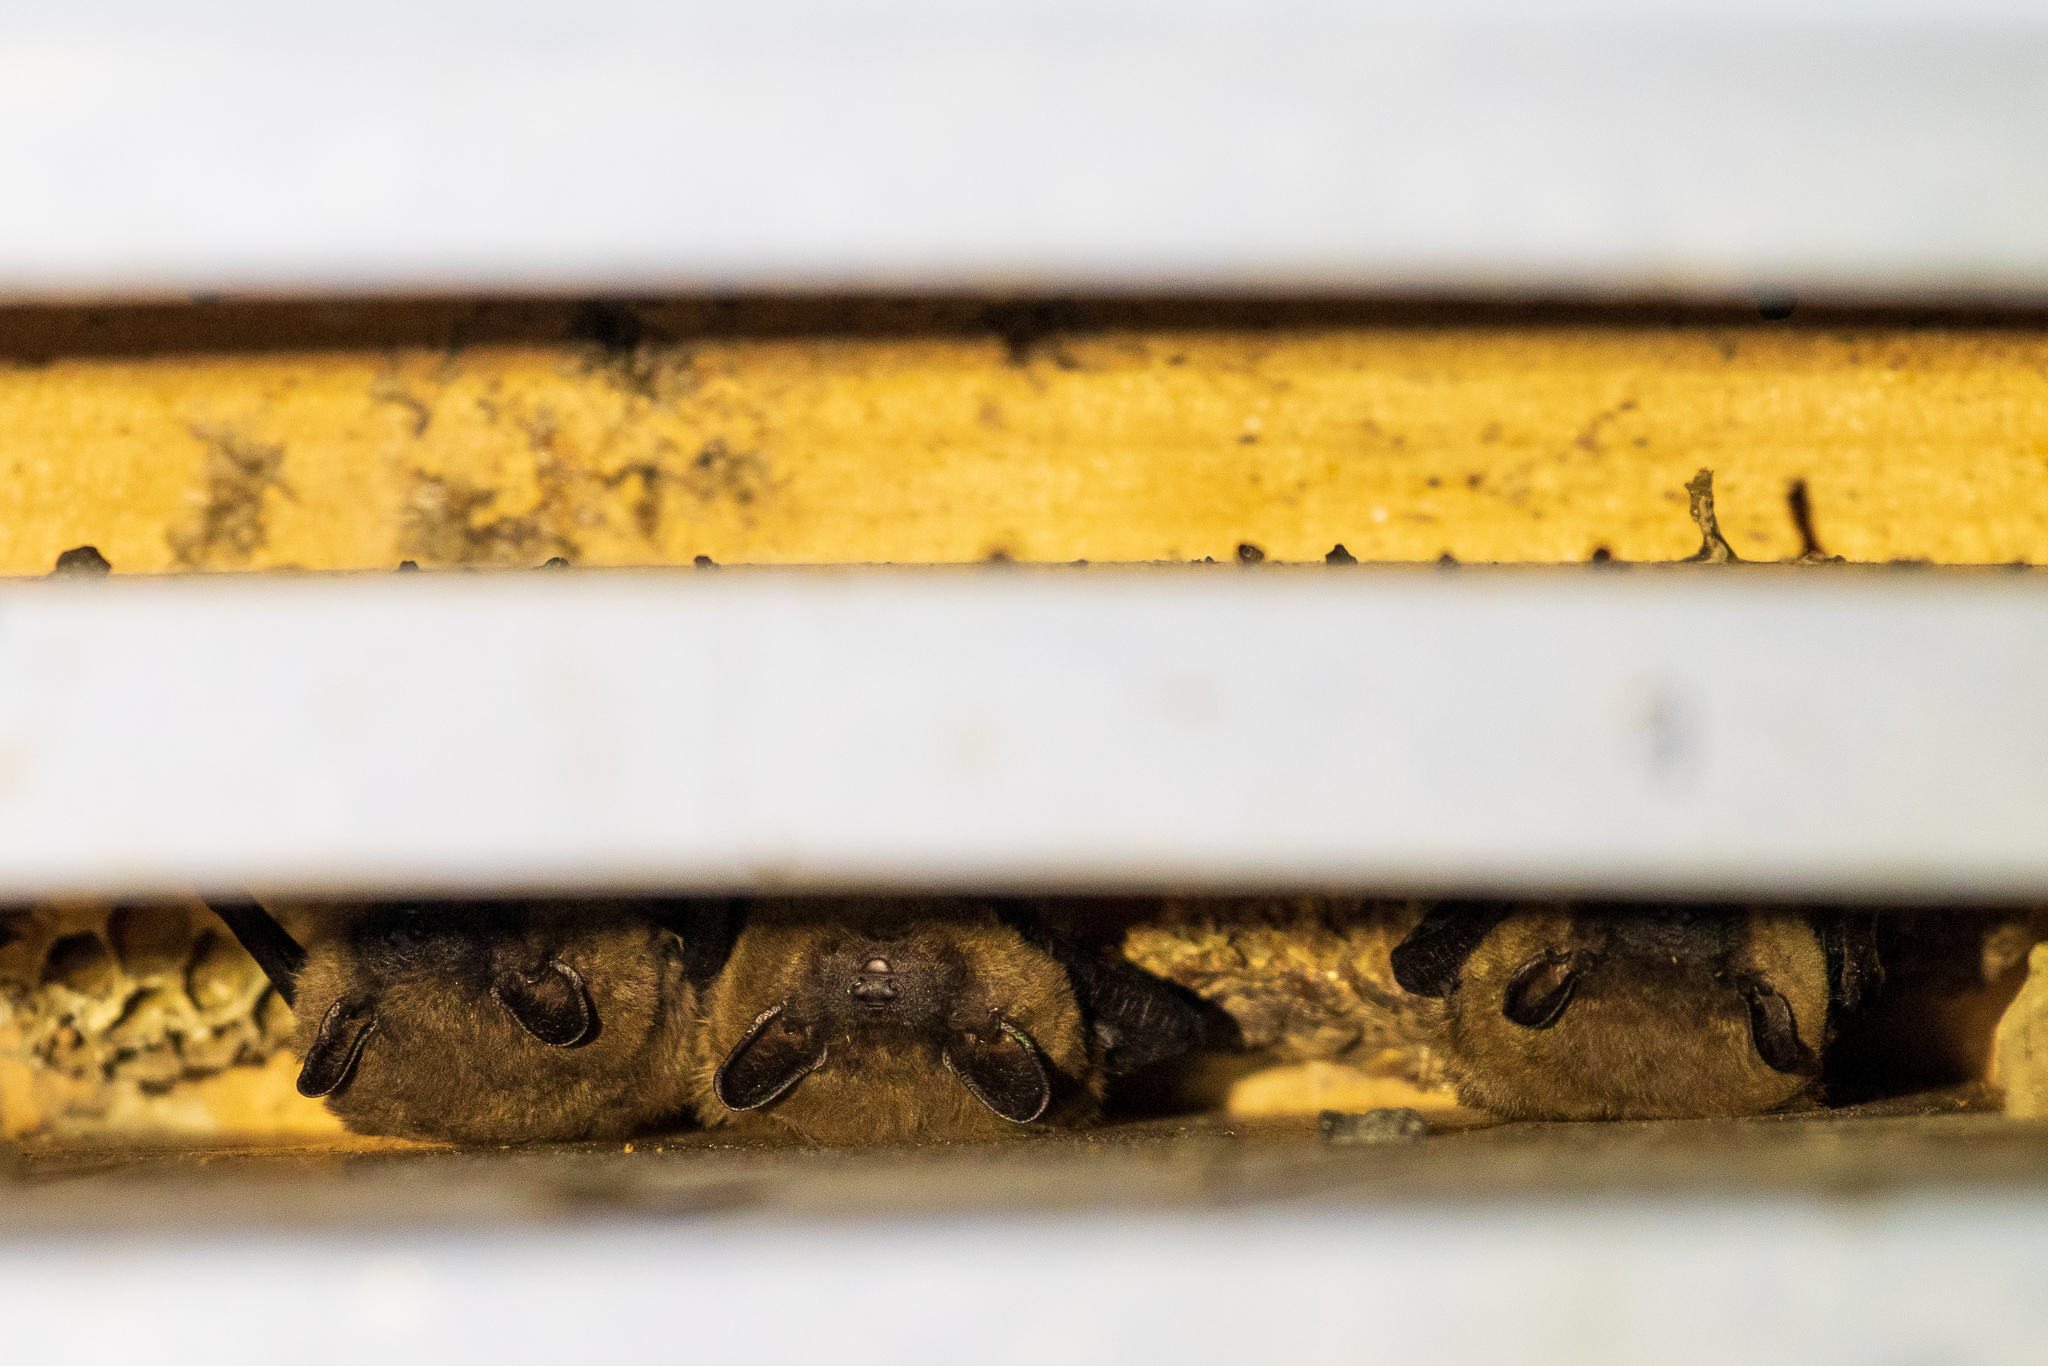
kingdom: Animalia
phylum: Chordata
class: Mammalia
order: Chiroptera
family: Vespertilionidae
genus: Eptesicus
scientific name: Eptesicus fuscus
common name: Big brown bat
